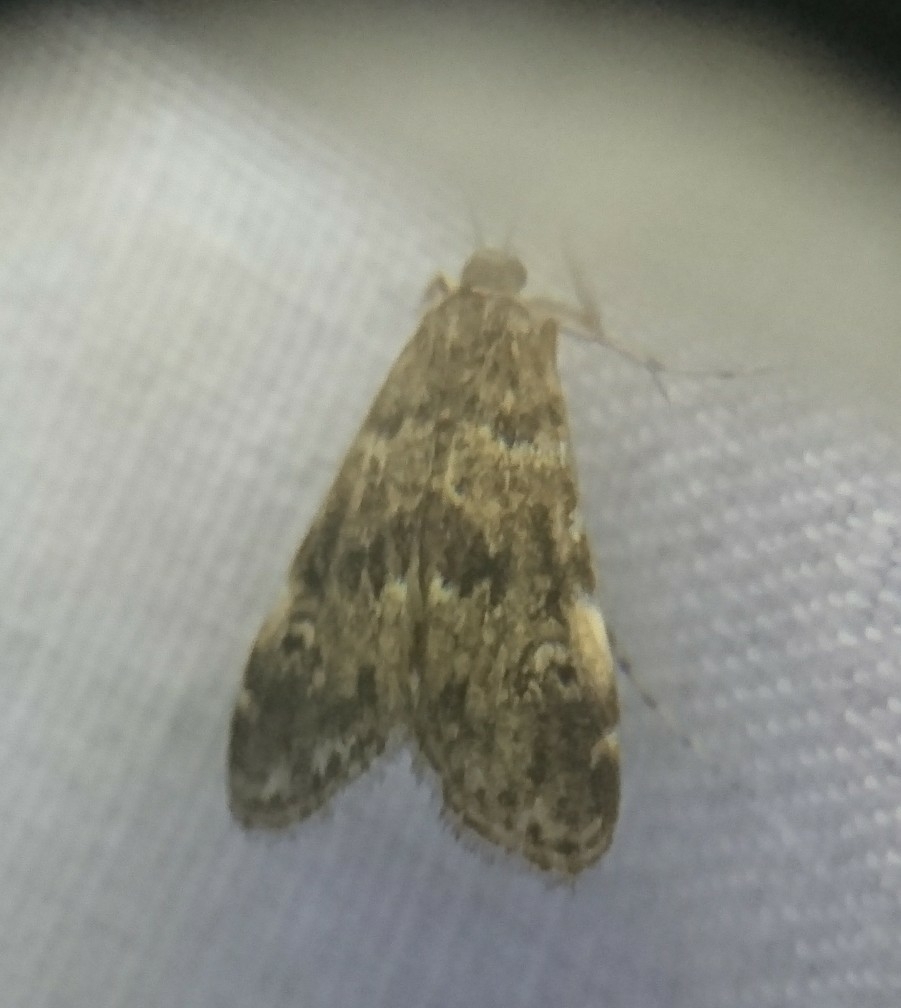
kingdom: Animalia
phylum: Arthropoda
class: Insecta
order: Lepidoptera
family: Crambidae
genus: Elophila
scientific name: Elophila obliteralis
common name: Waterlily leafcutter moth
